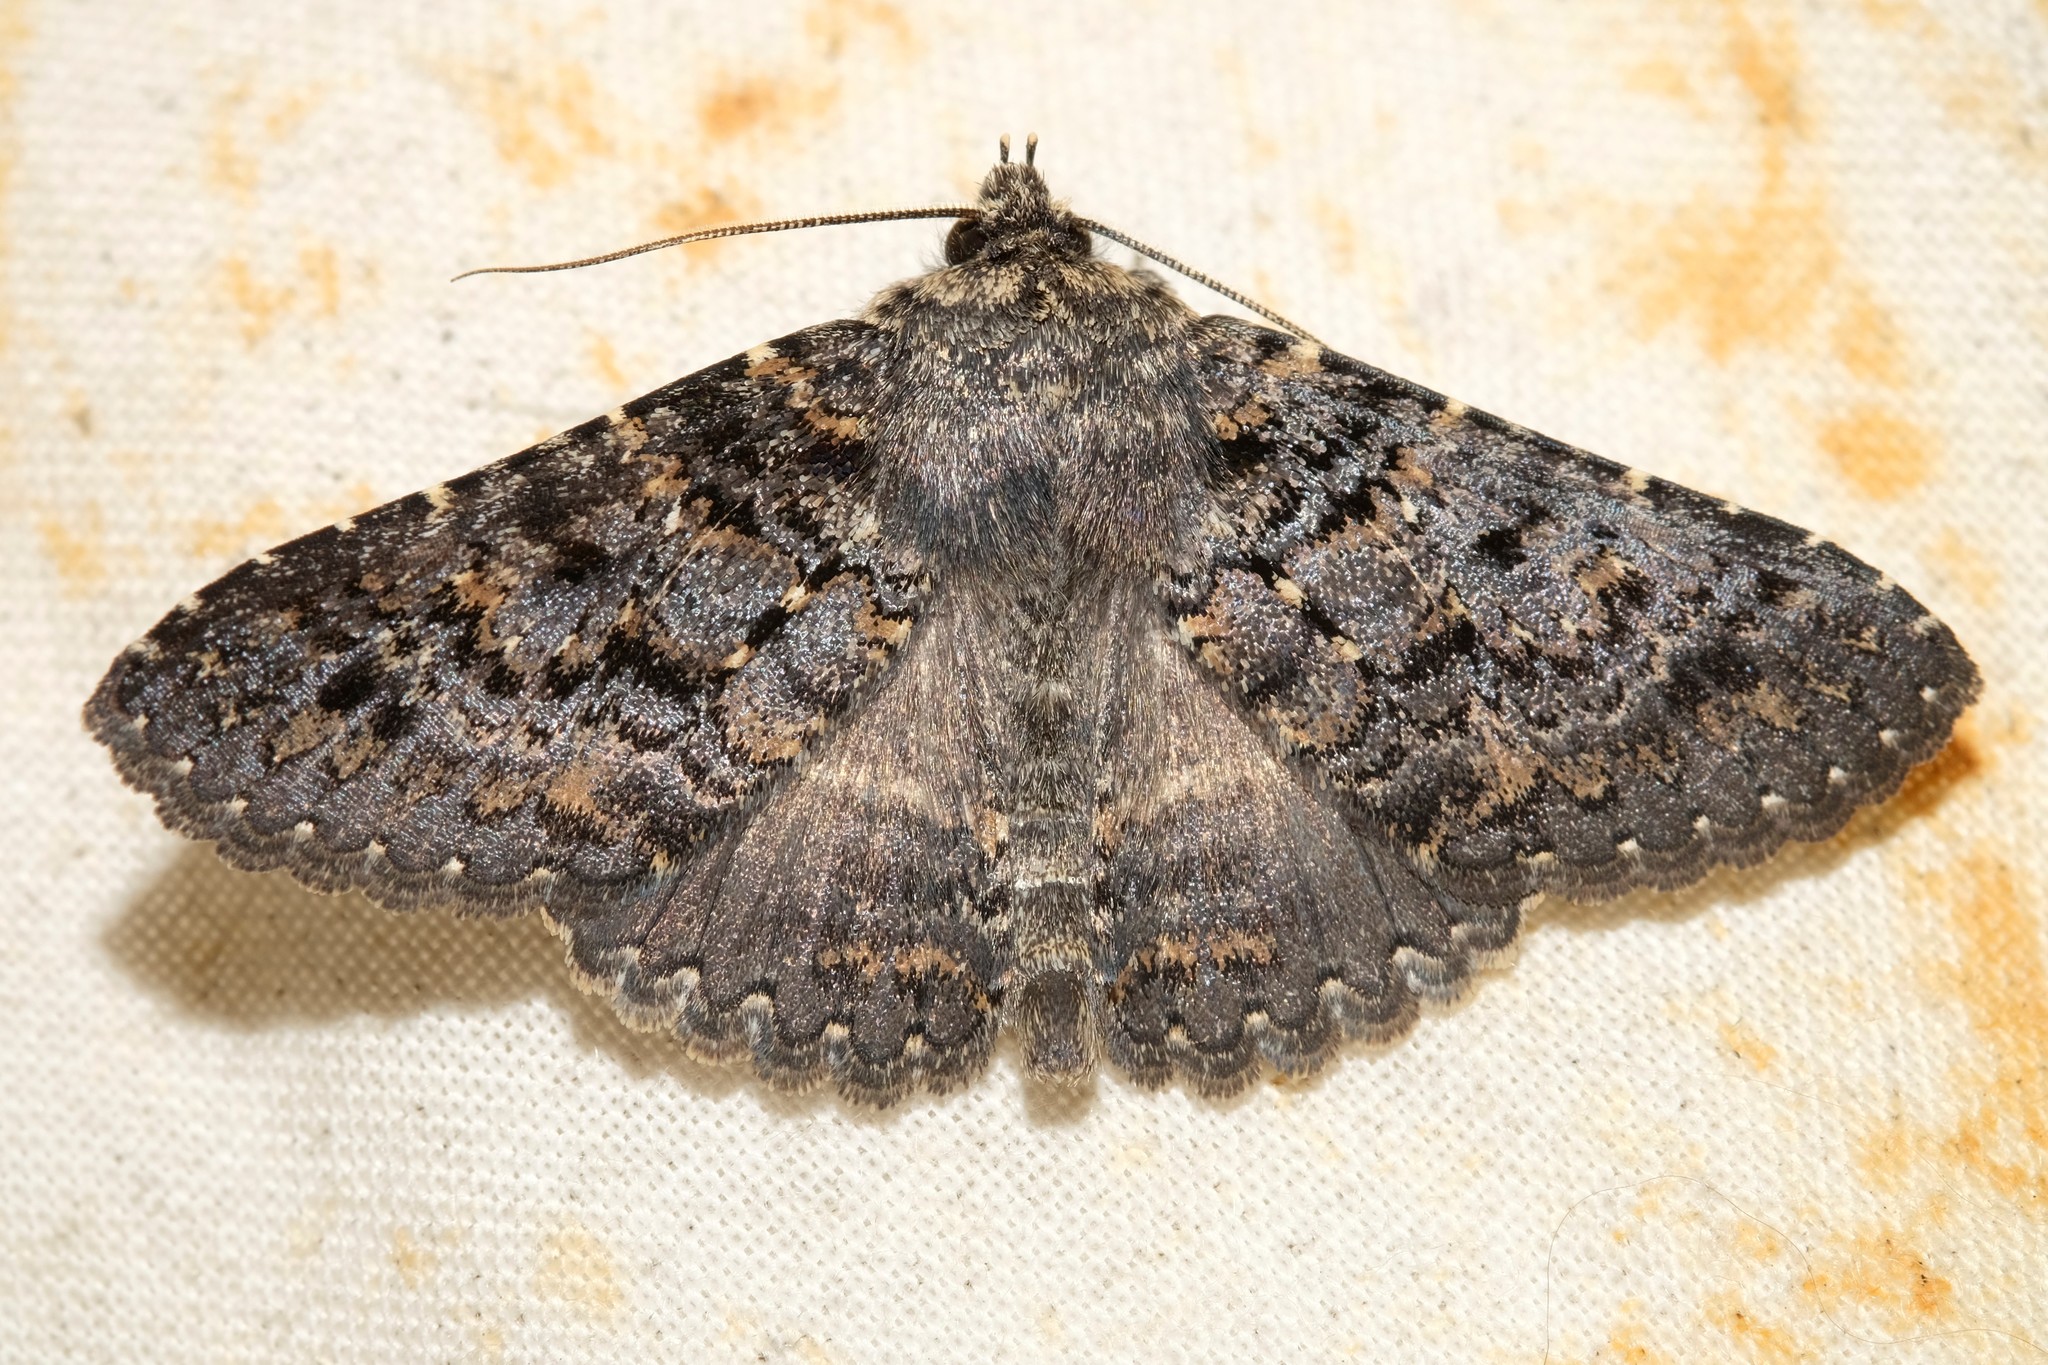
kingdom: Animalia
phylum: Arthropoda
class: Insecta
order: Lepidoptera
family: Erebidae
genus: Praxis
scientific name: Praxis edwardsii
